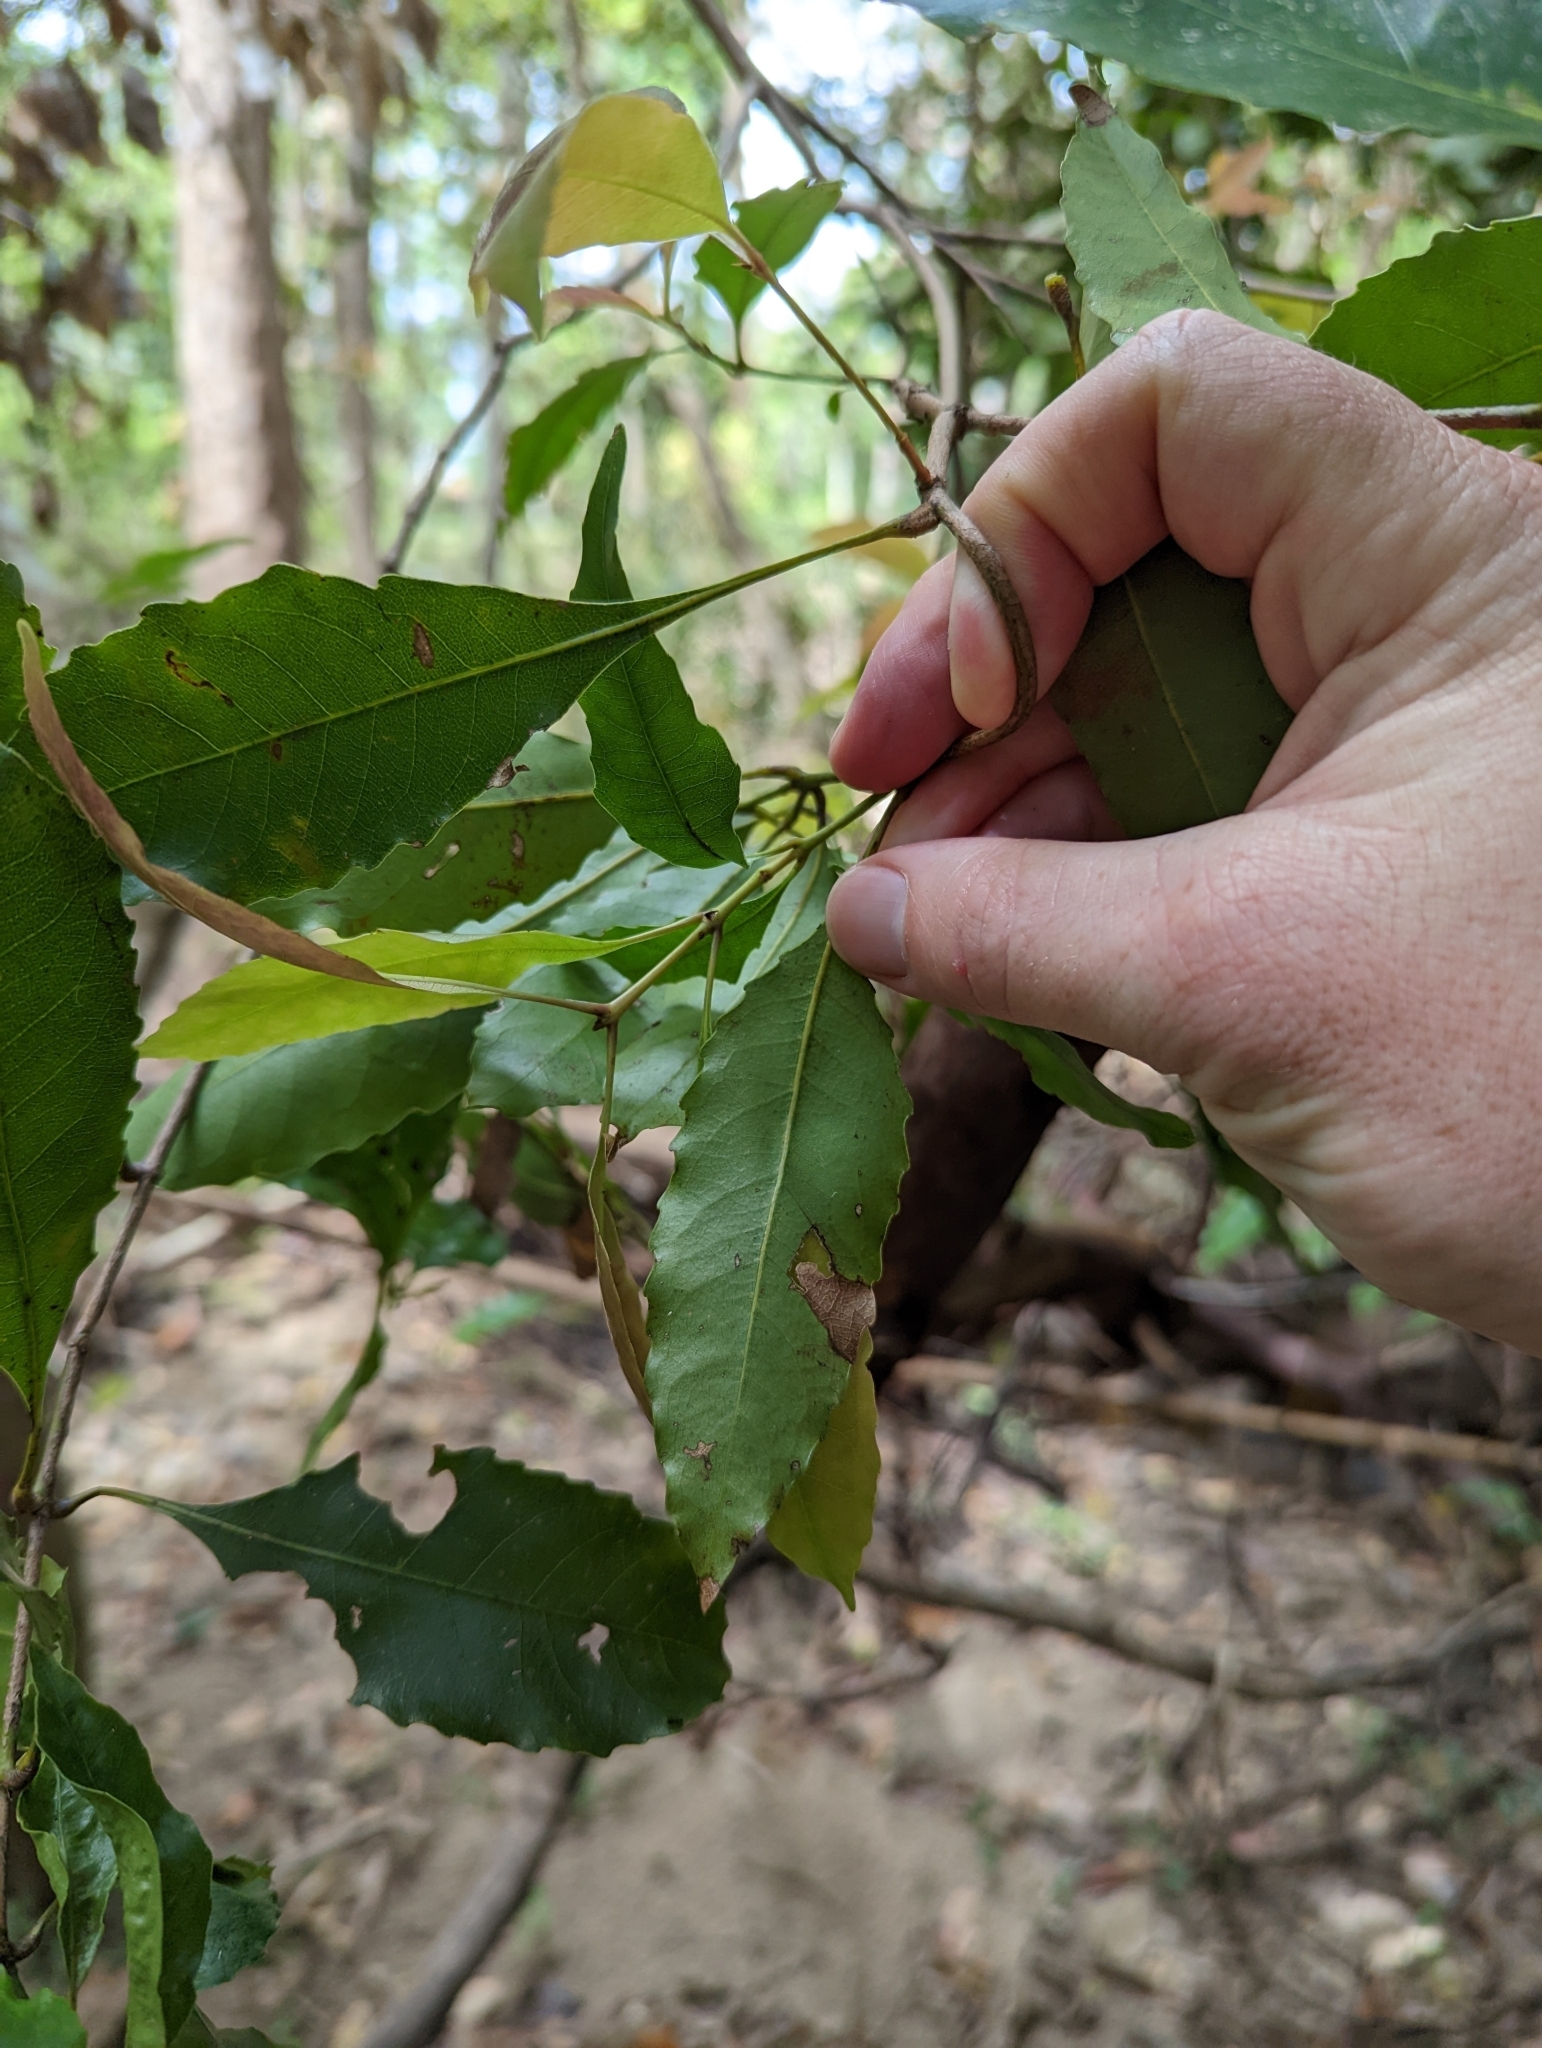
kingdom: Plantae
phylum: Tracheophyta
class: Magnoliopsida
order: Oxalidales
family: Cunoniaceae
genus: Schizomeria
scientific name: Schizomeria ovata
